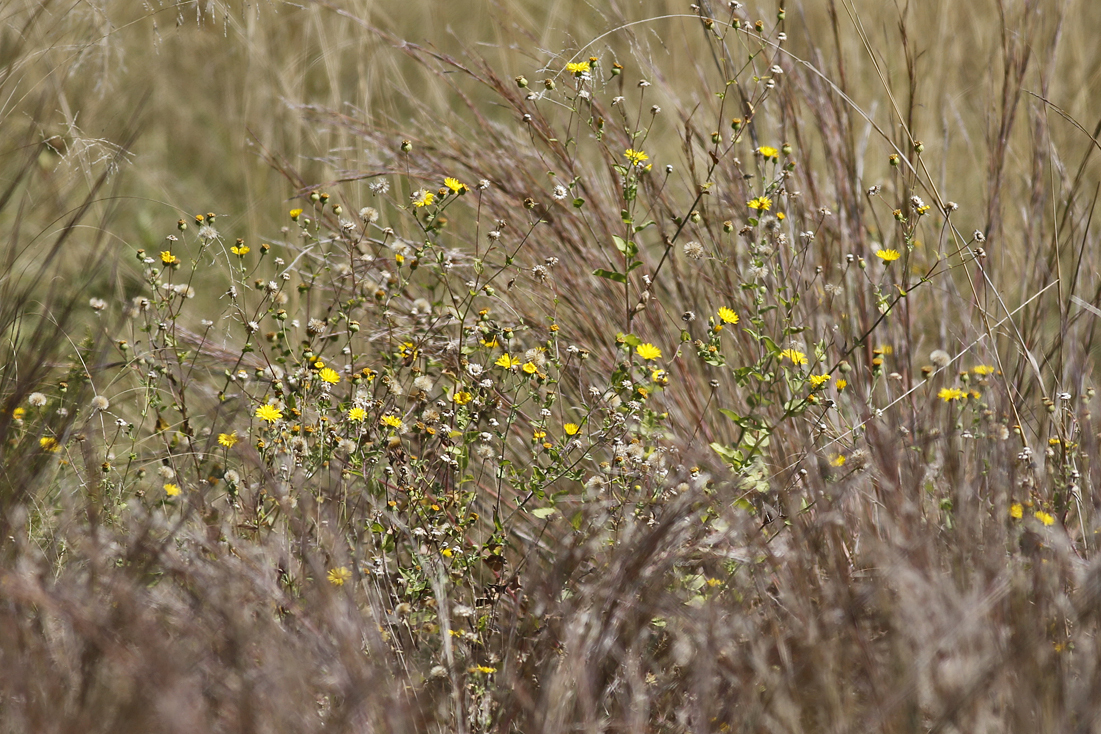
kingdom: Plantae
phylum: Tracheophyta
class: Magnoliopsida
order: Asterales
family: Asteraceae
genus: Heterotheca
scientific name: Heterotheca subaxillaris
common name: Camphorweed
